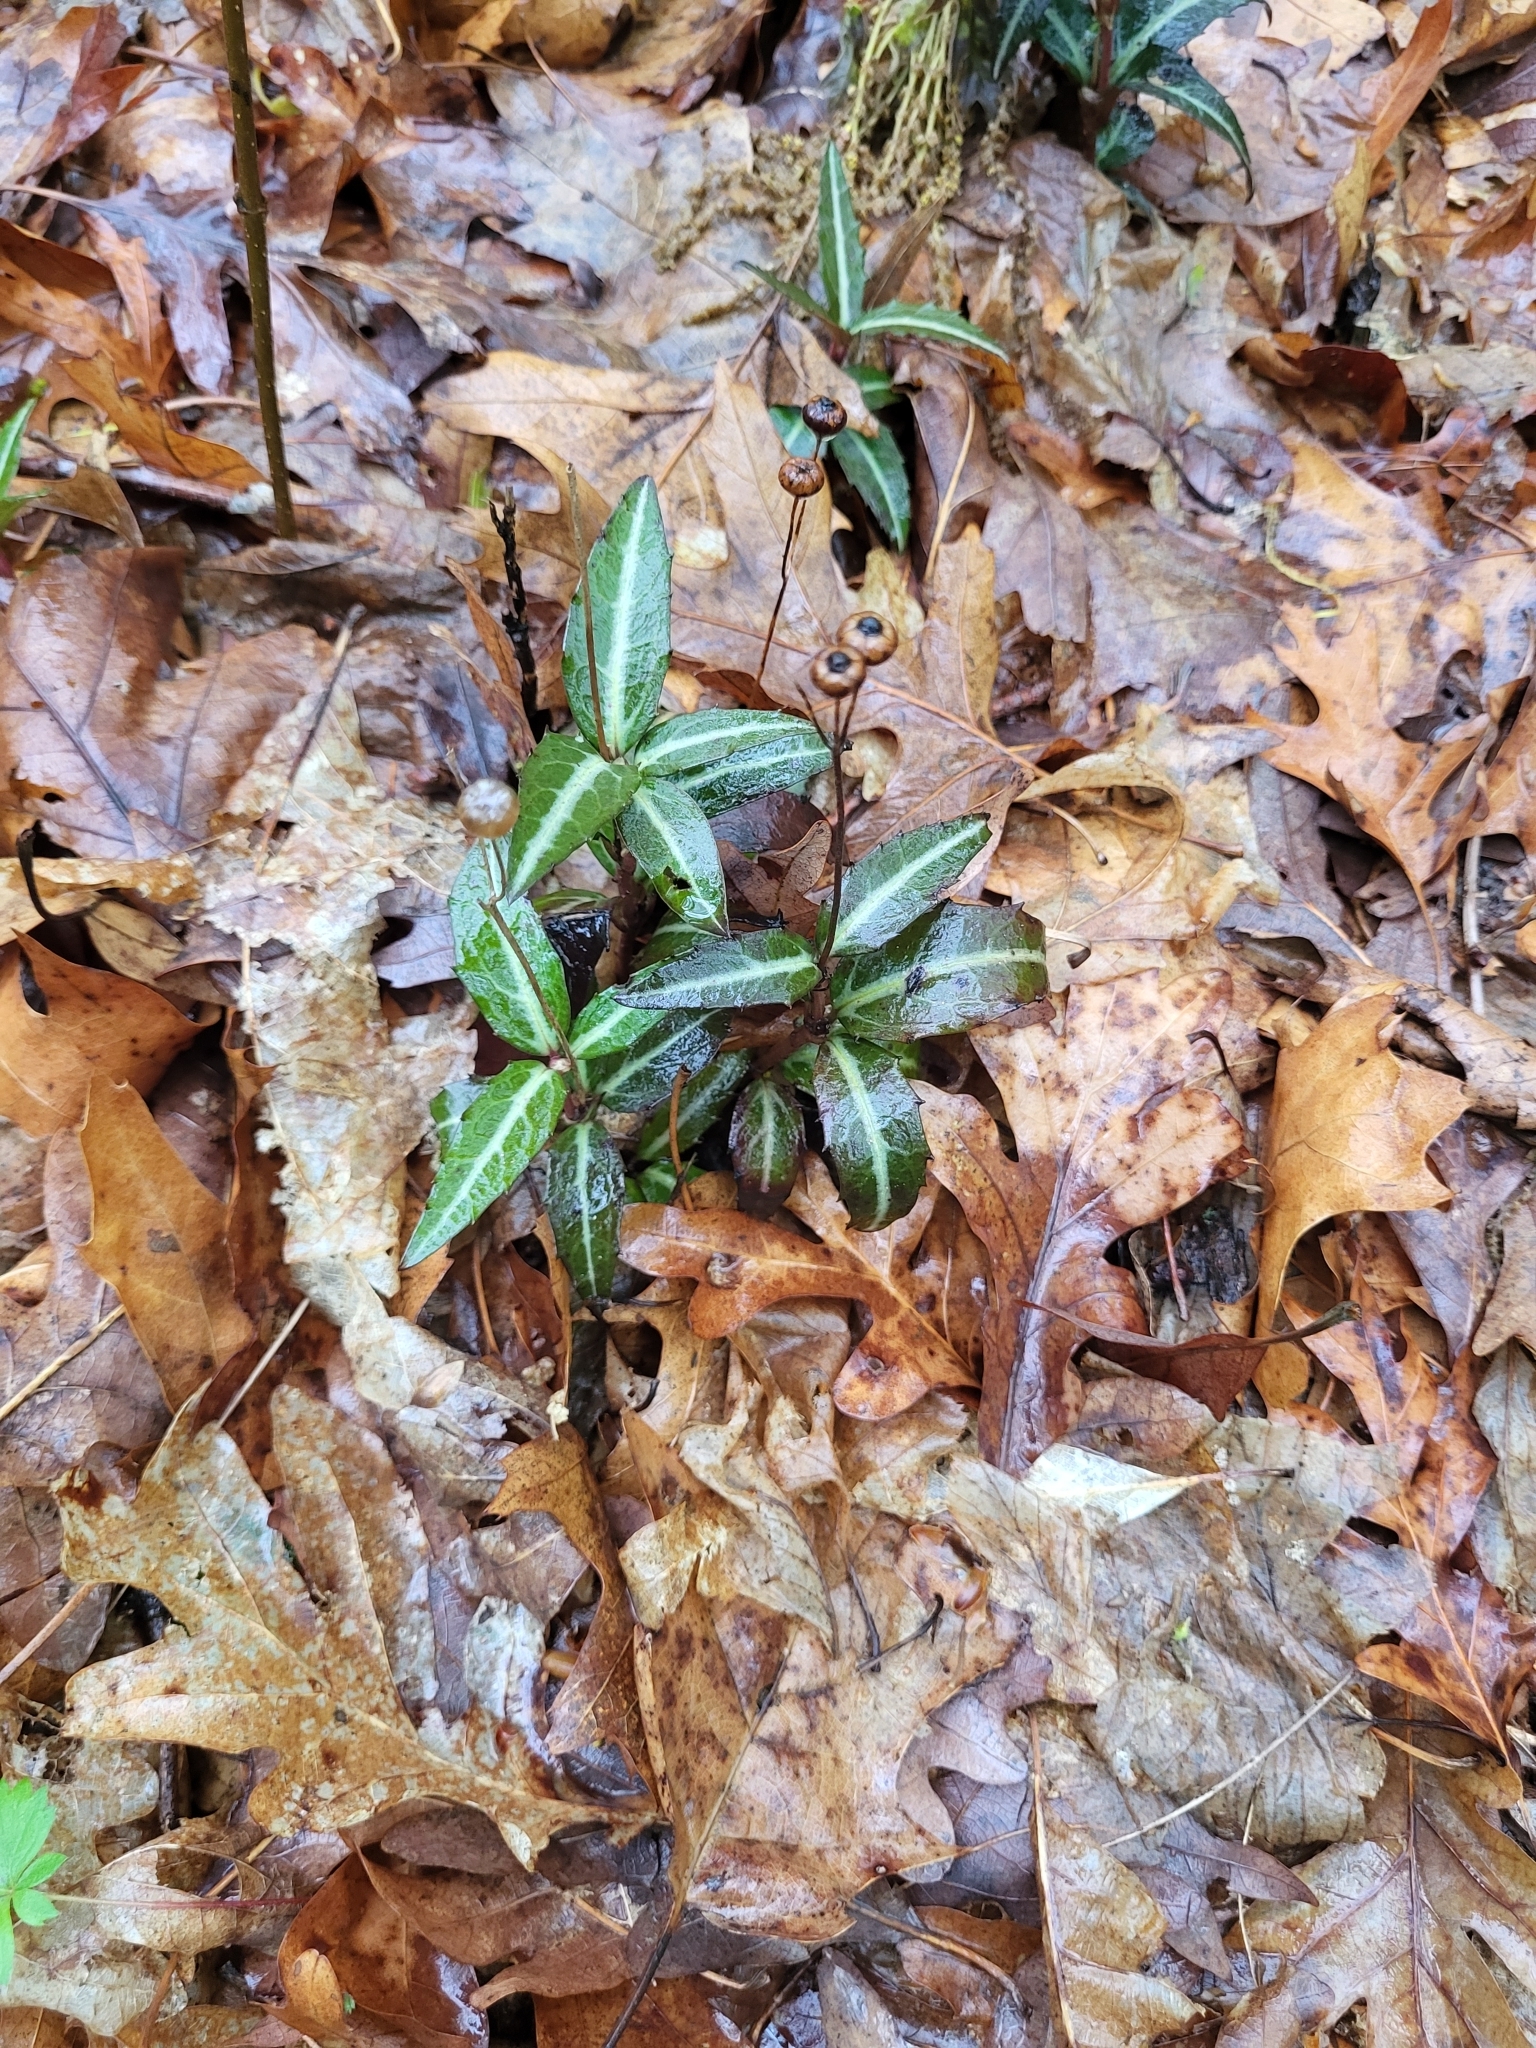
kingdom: Plantae
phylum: Tracheophyta
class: Magnoliopsida
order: Ericales
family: Ericaceae
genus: Chimaphila
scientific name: Chimaphila maculata
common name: Spotted pipsissewa
